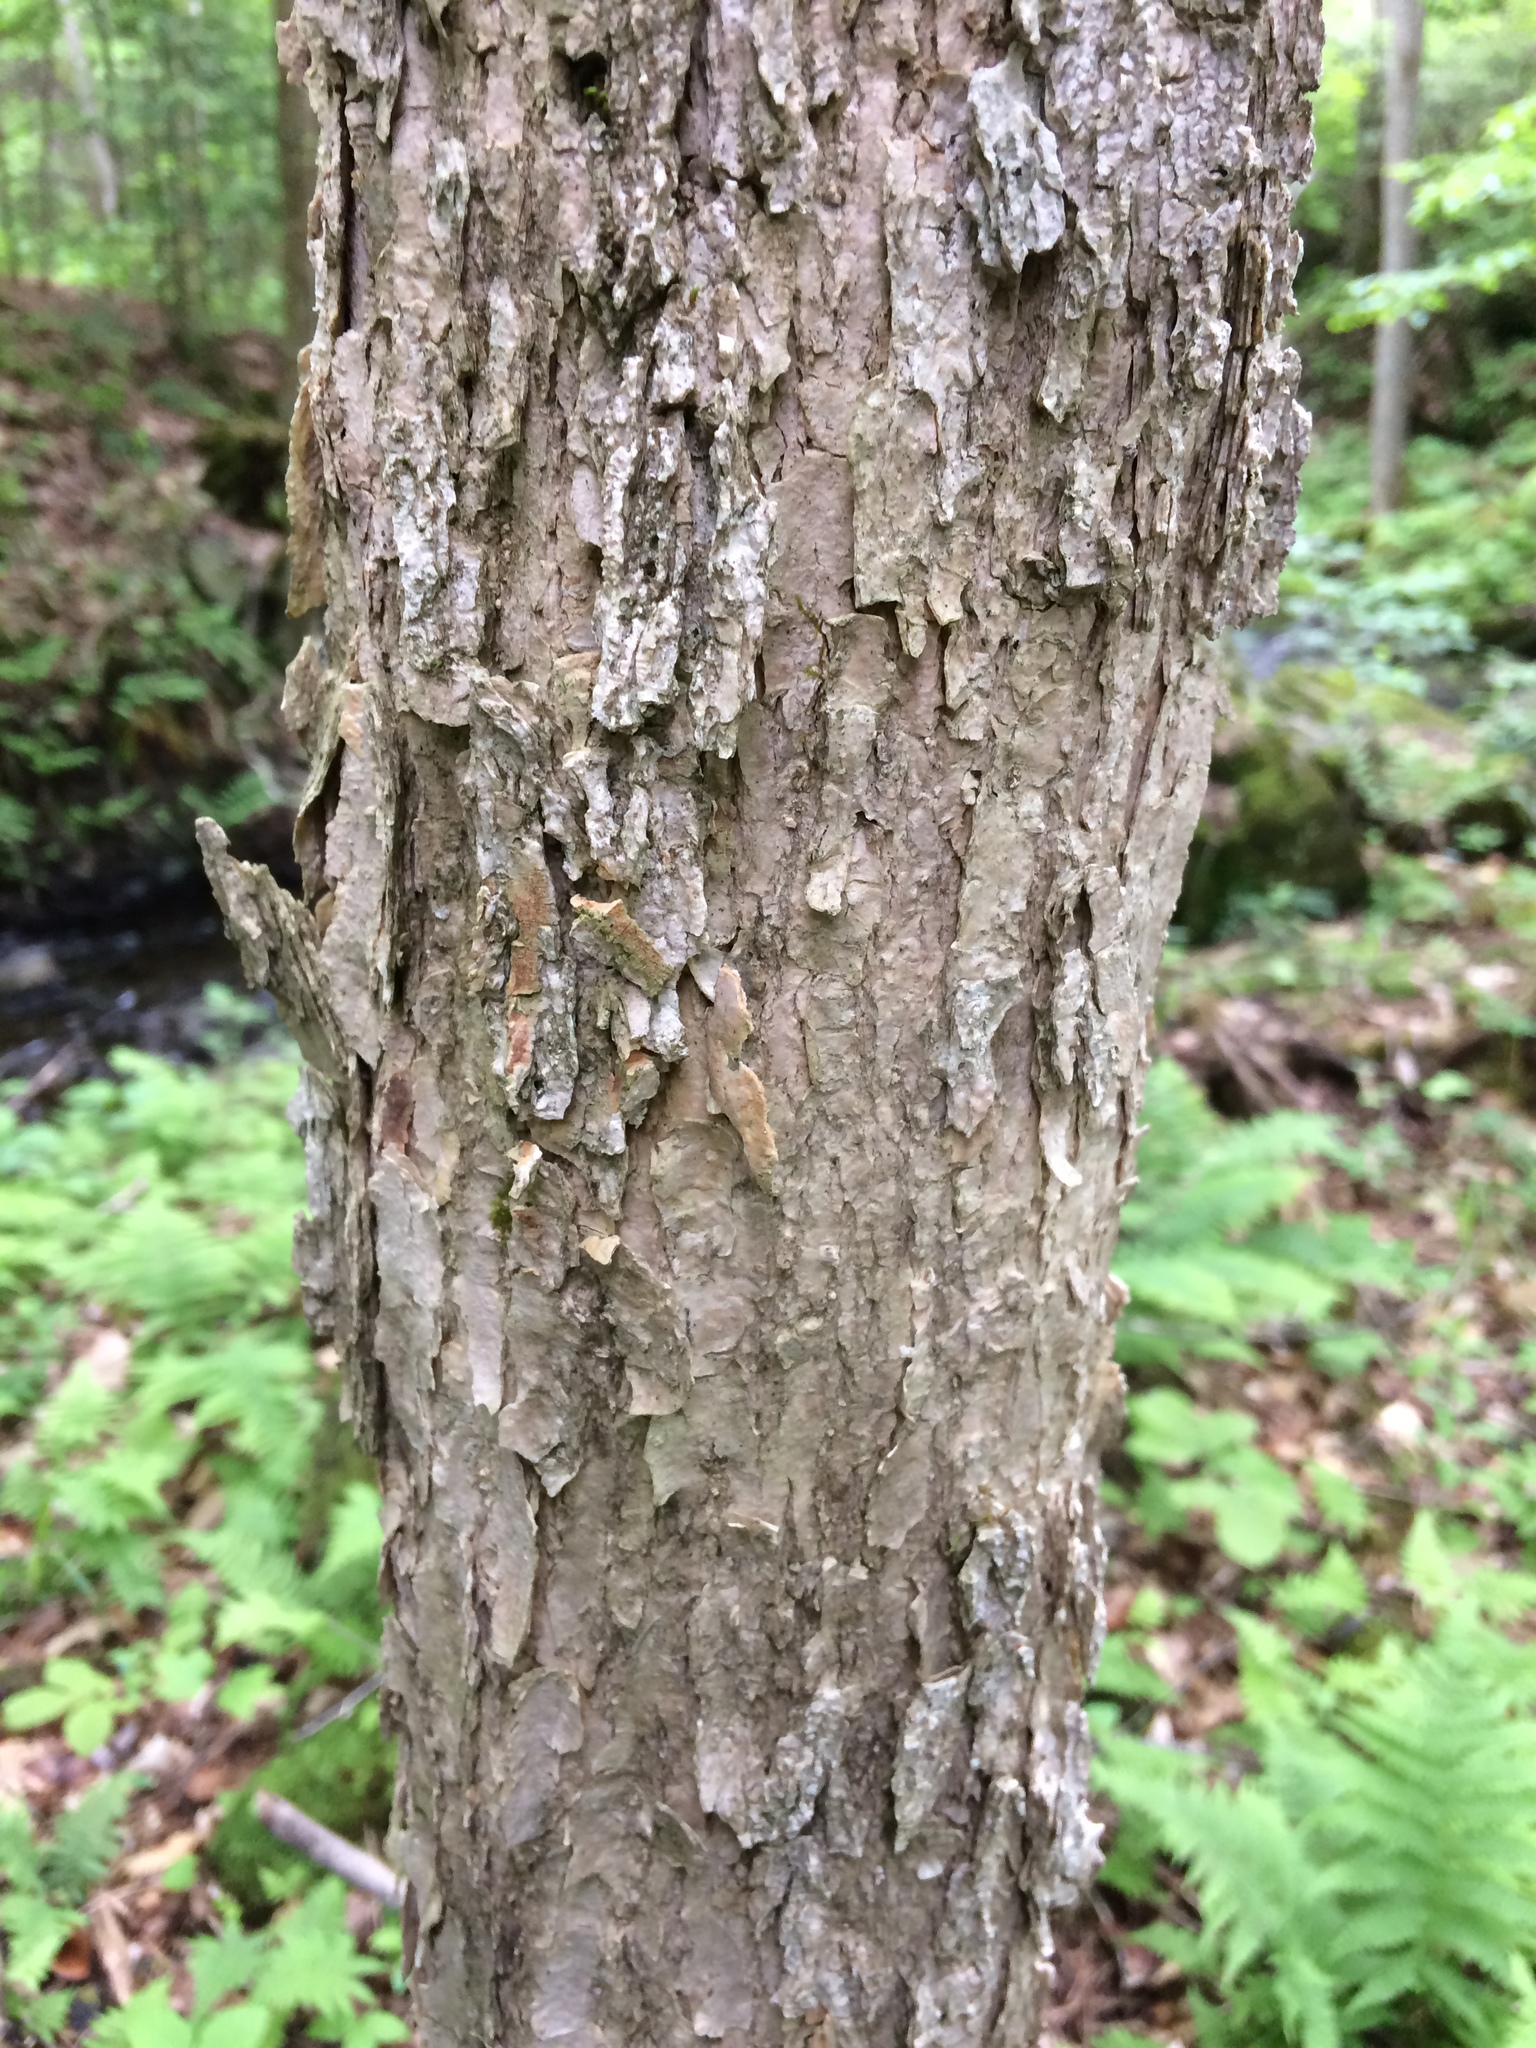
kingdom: Plantae
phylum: Tracheophyta
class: Magnoliopsida
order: Lamiales
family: Oleaceae
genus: Fraxinus
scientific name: Fraxinus nigra
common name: Black ash
